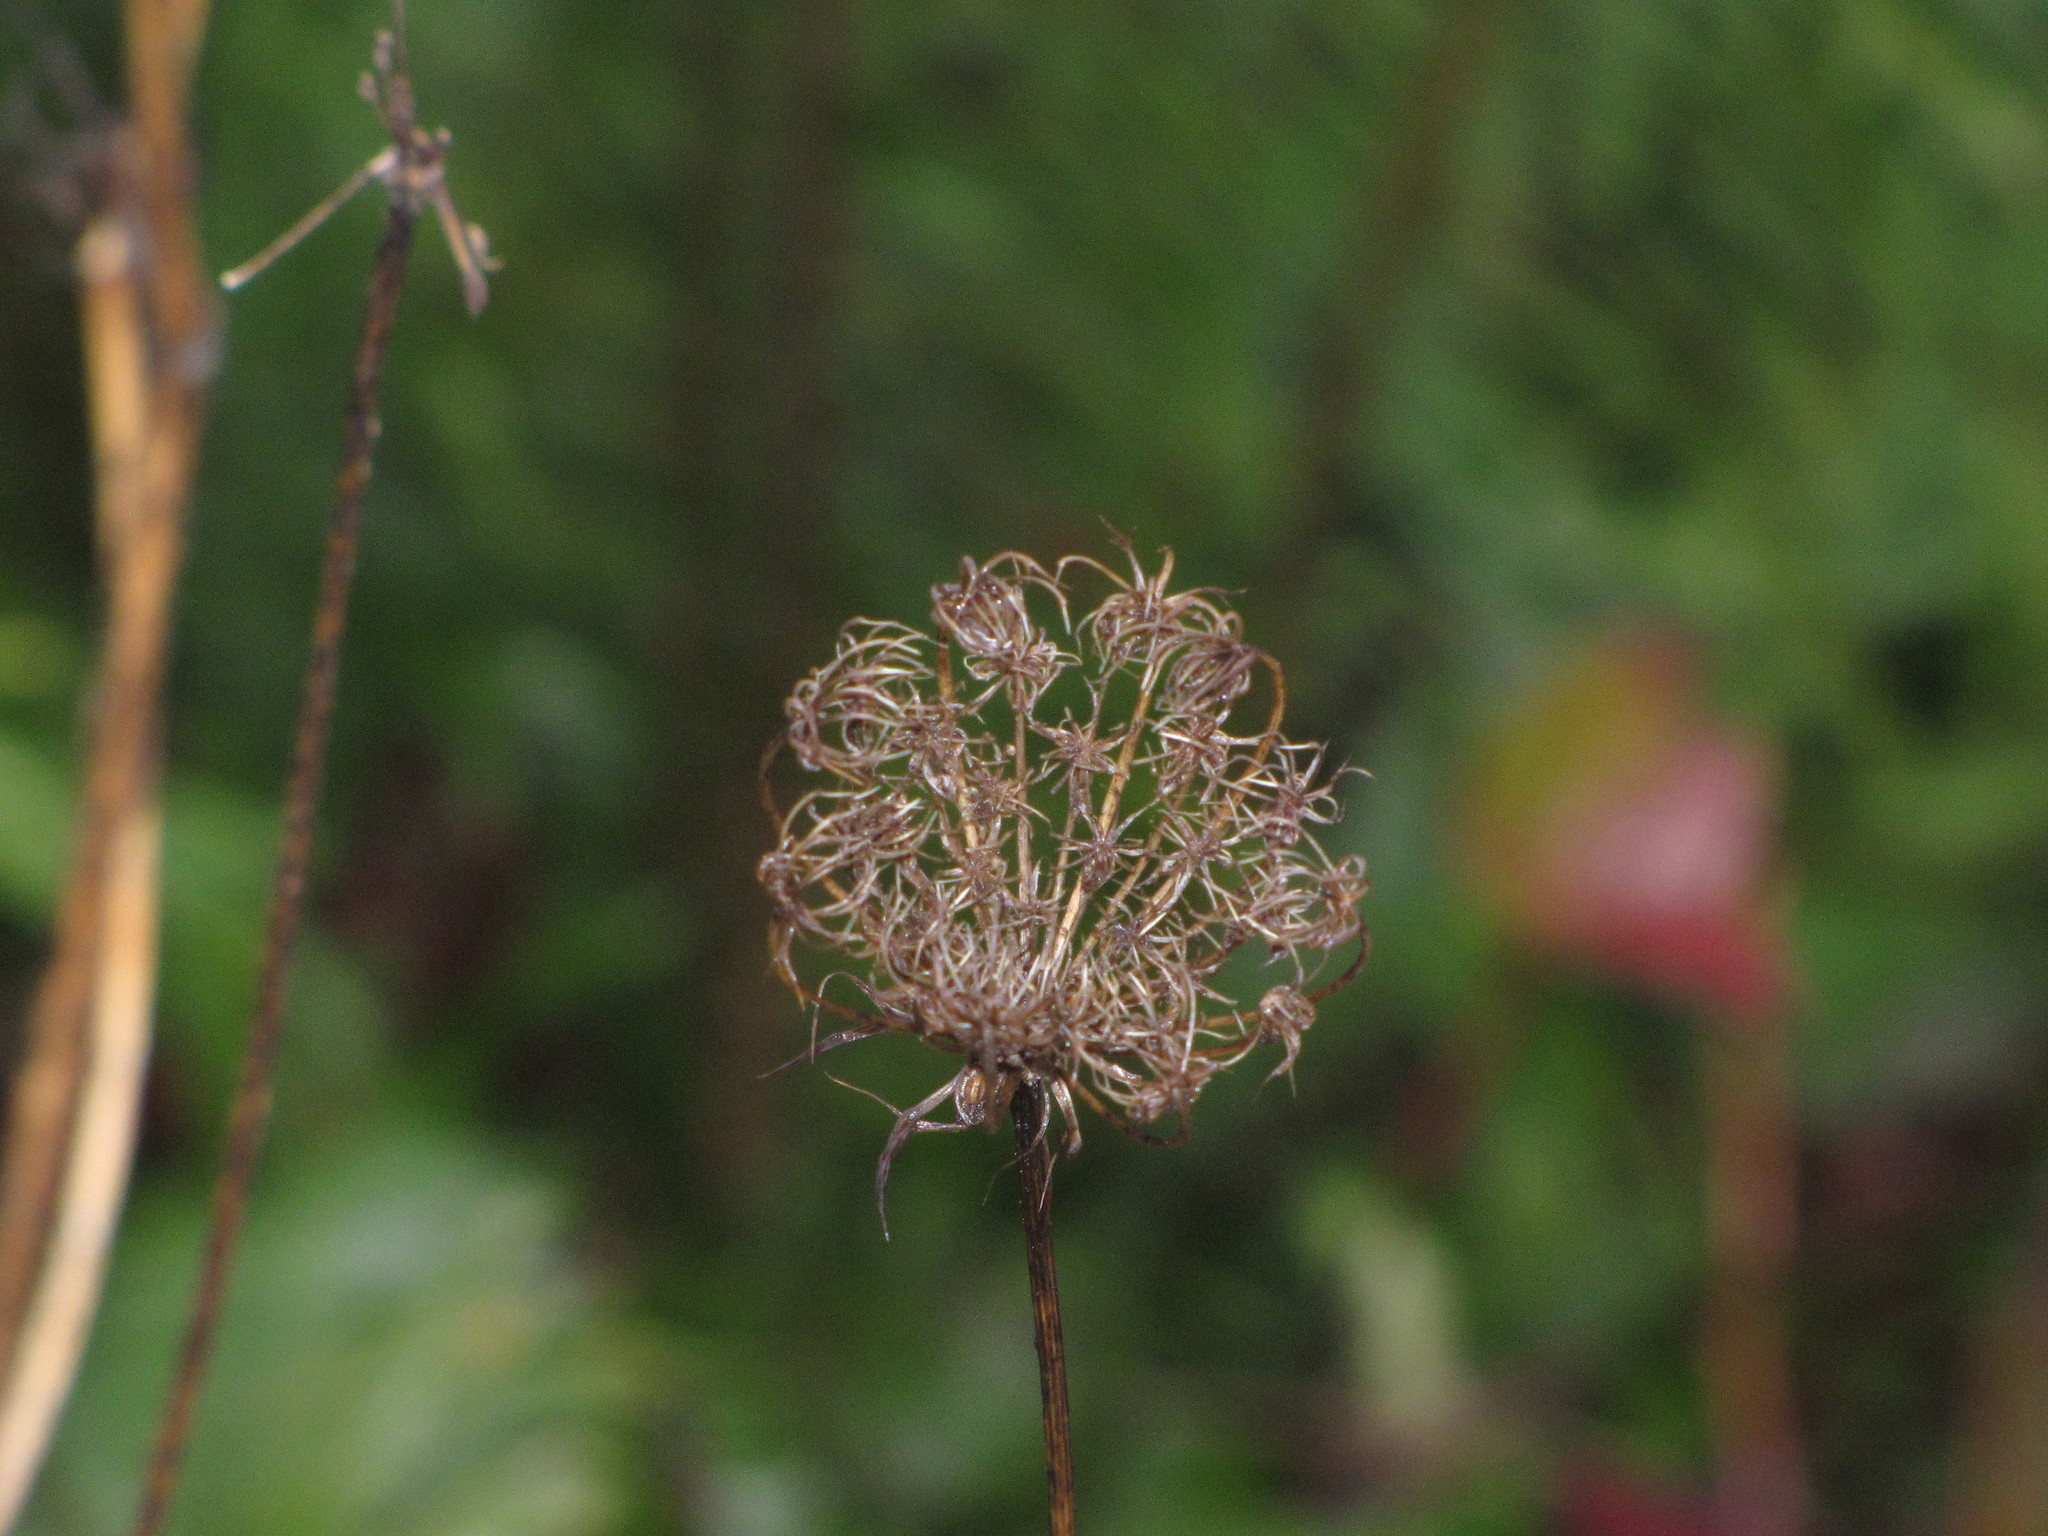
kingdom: Plantae
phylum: Tracheophyta
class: Magnoliopsida
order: Apiales
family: Apiaceae
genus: Daucus
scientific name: Daucus carota
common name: Wild carrot
